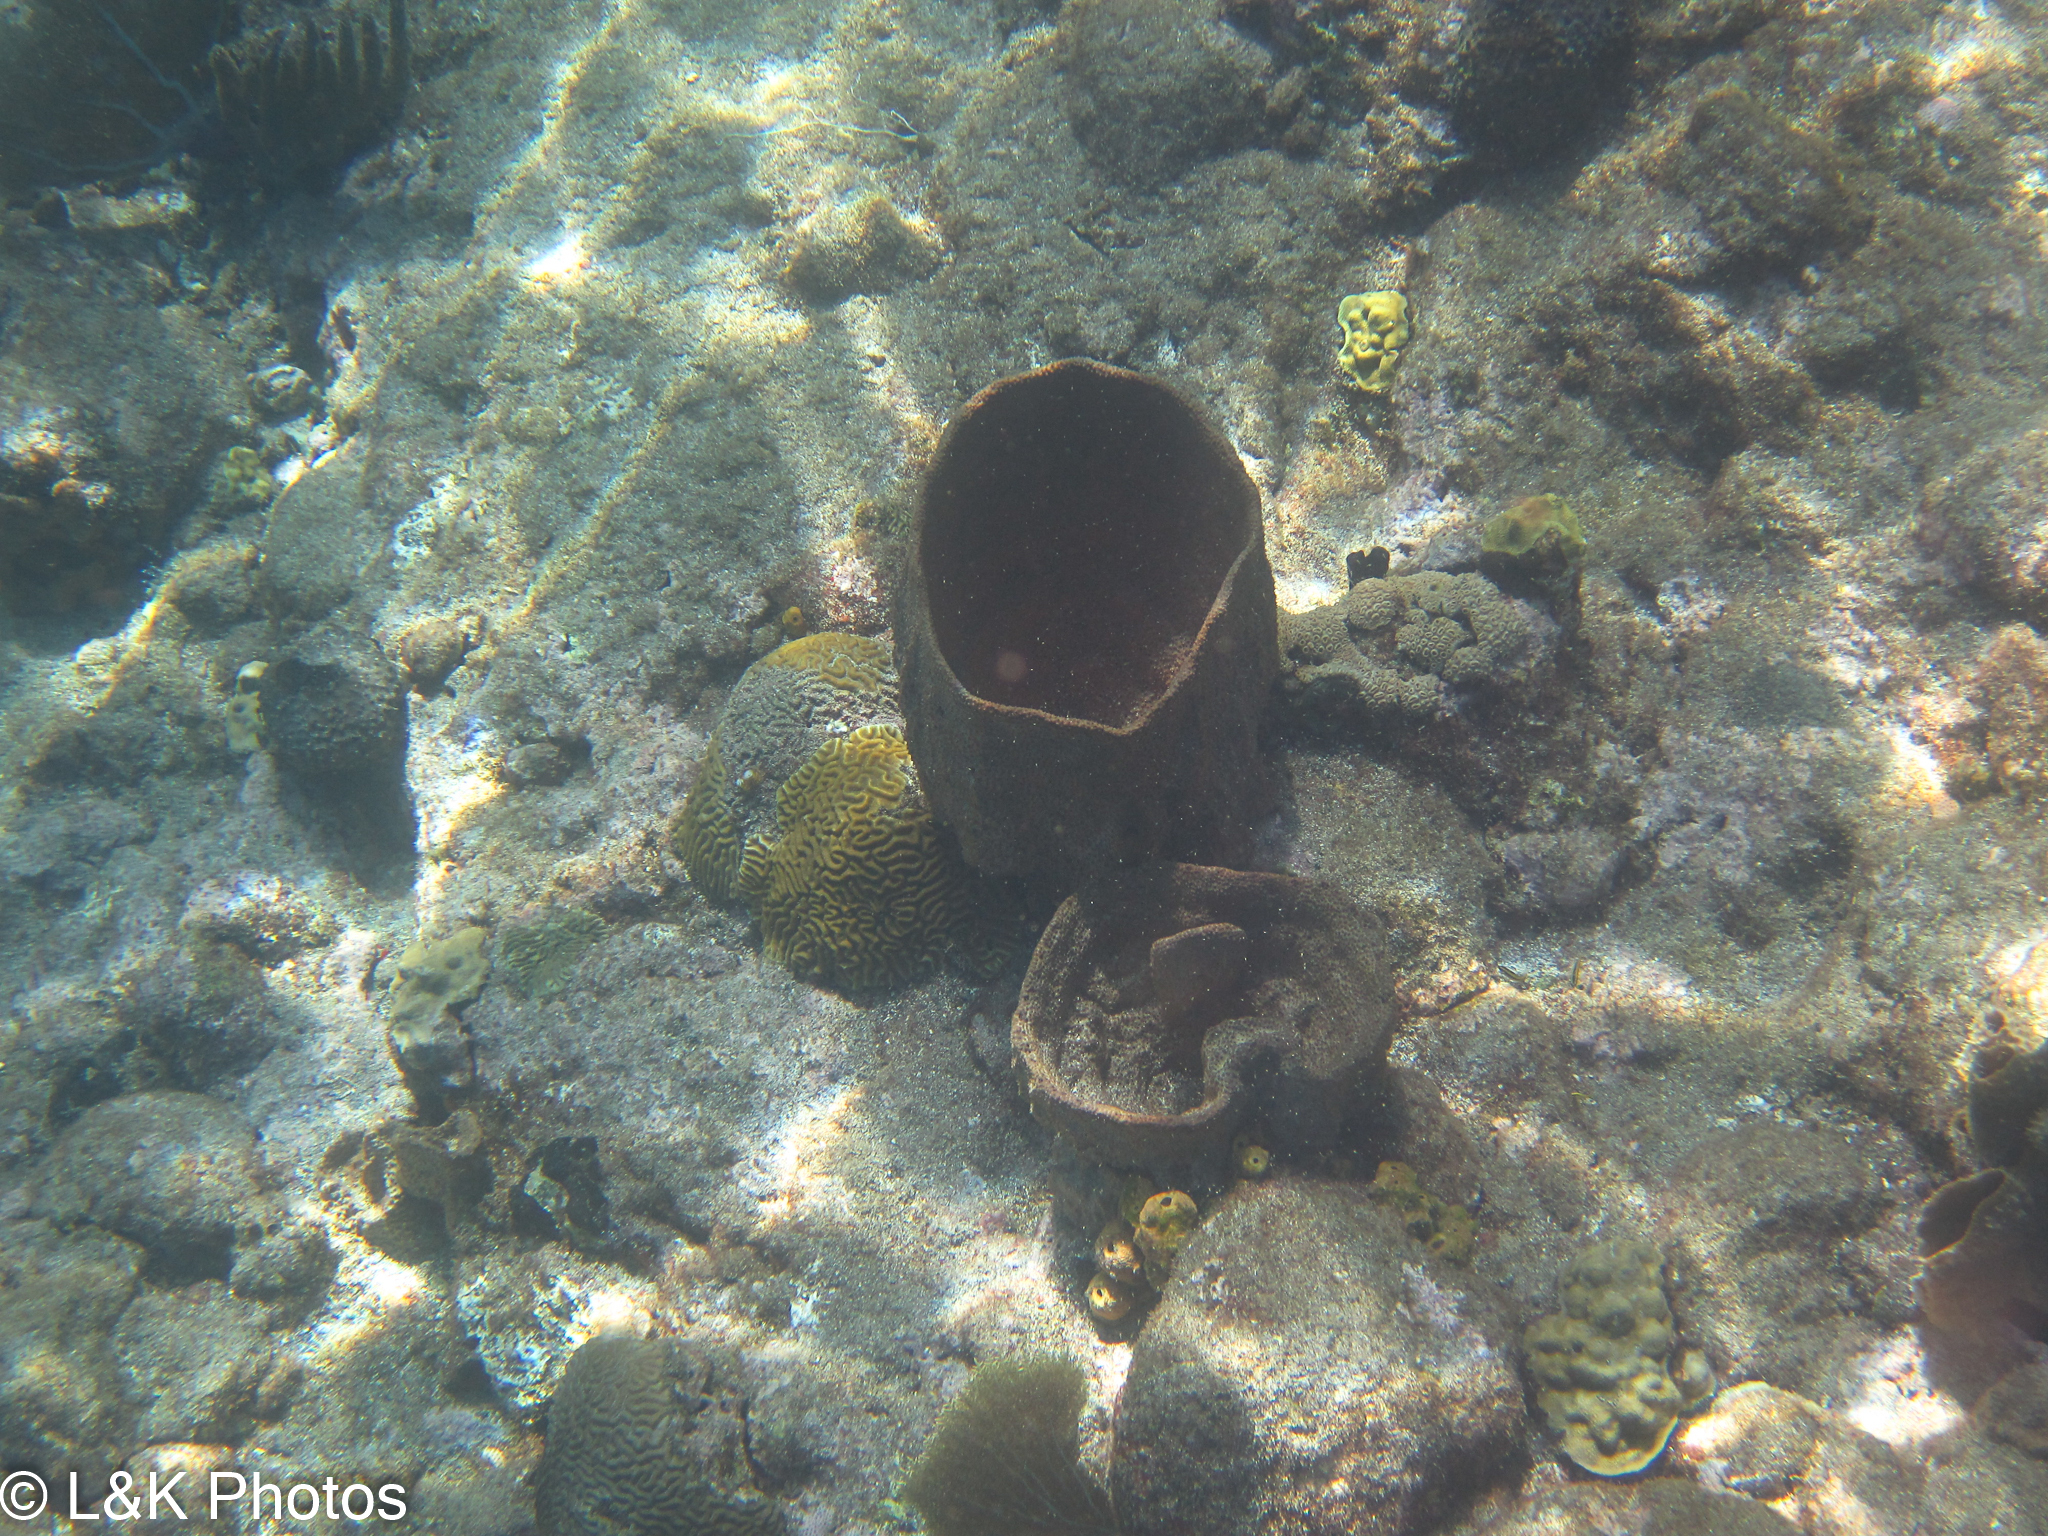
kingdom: Animalia
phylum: Porifera
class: Demospongiae
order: Dictyoceratida
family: Irciniidae
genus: Ircinia
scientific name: Ircinia campana
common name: Vase sponge
